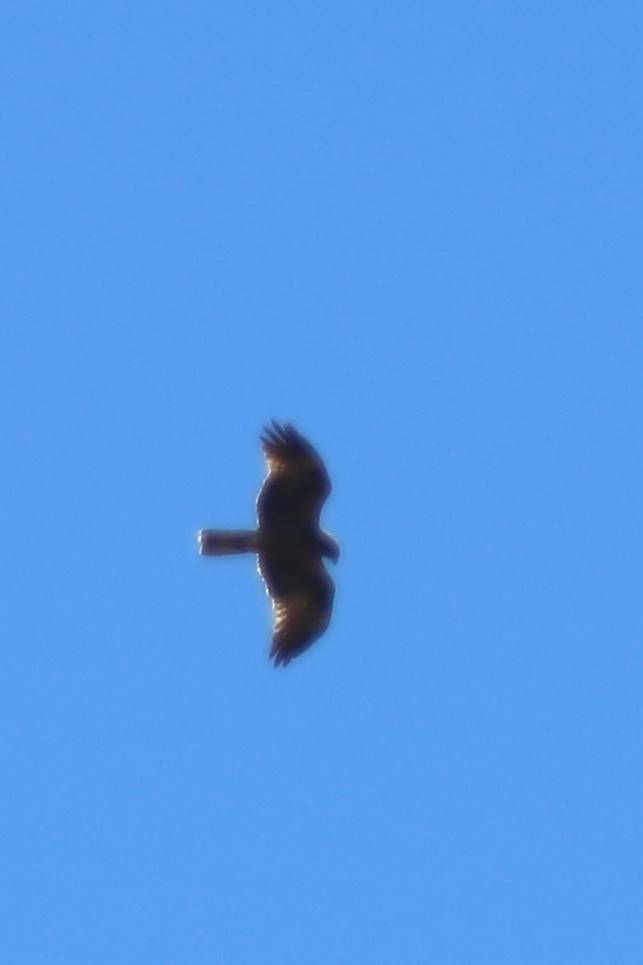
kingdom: Animalia
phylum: Chordata
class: Aves
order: Accipitriformes
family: Accipitridae
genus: Hieraaetus
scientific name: Hieraaetus pennatus
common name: Booted eagle
